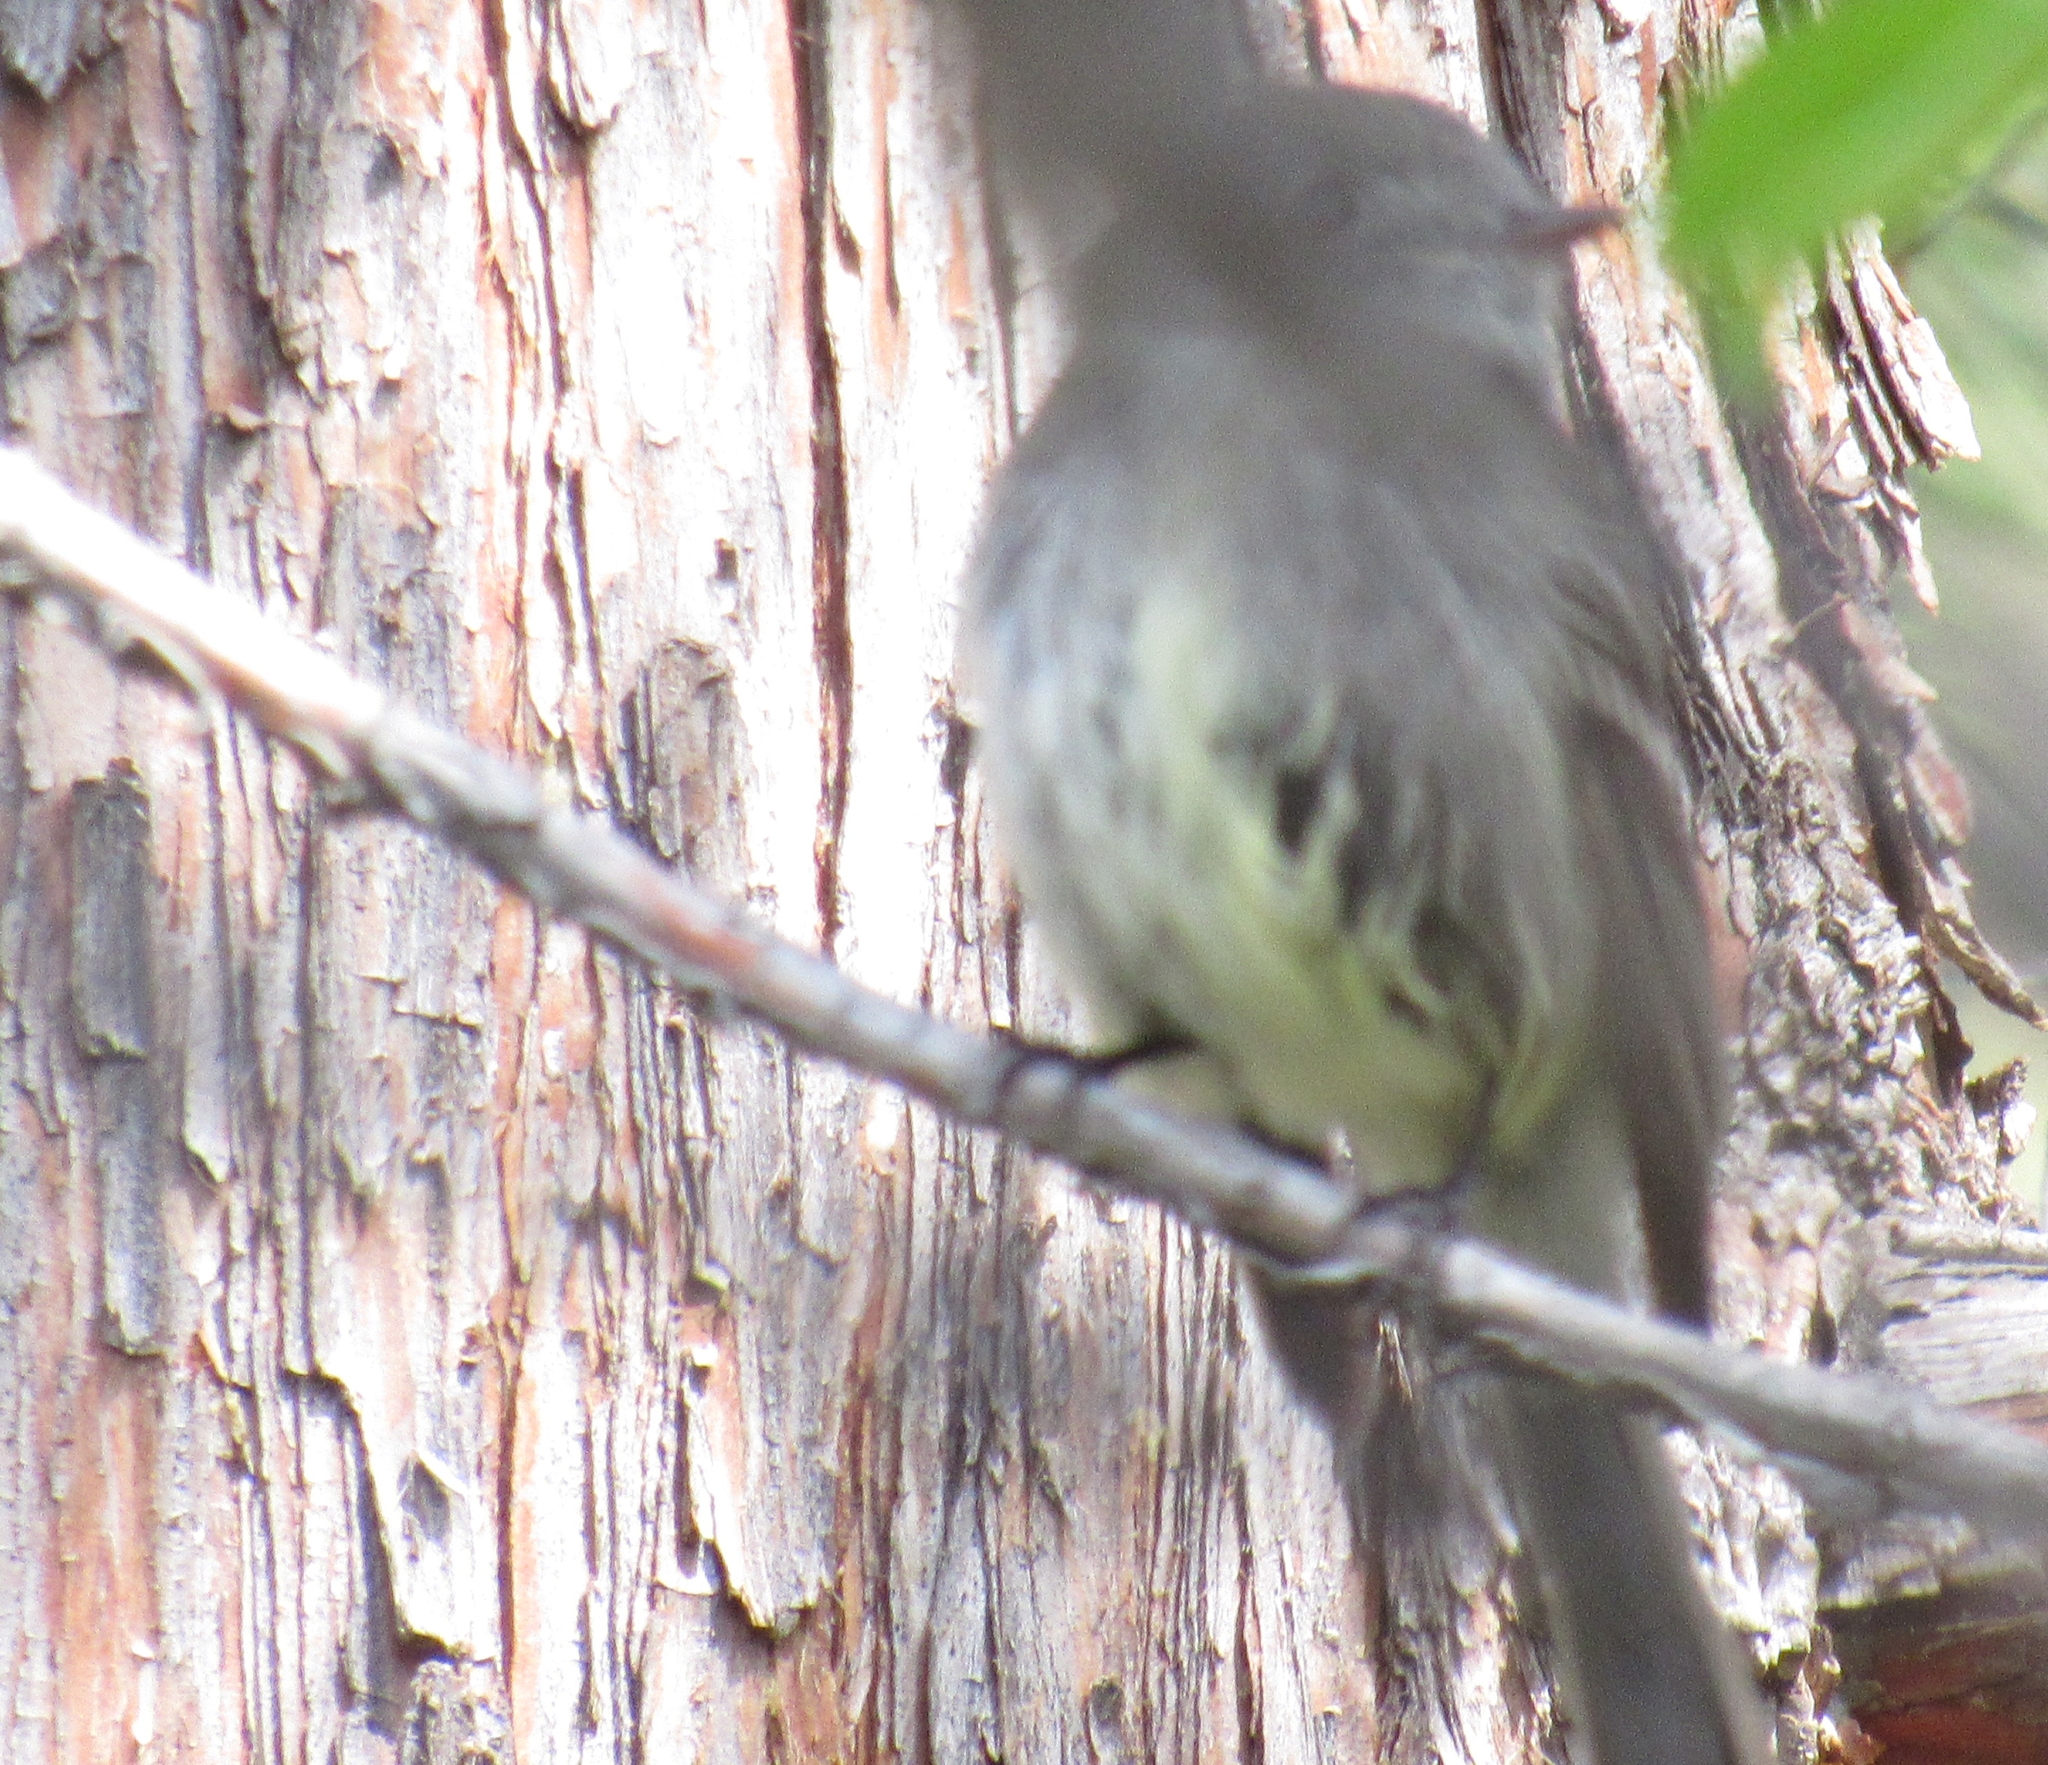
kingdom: Animalia
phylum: Chordata
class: Aves
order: Passeriformes
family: Tyrannidae
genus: Empidonax
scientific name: Empidonax hammondii
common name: Hammond's flycatcher
